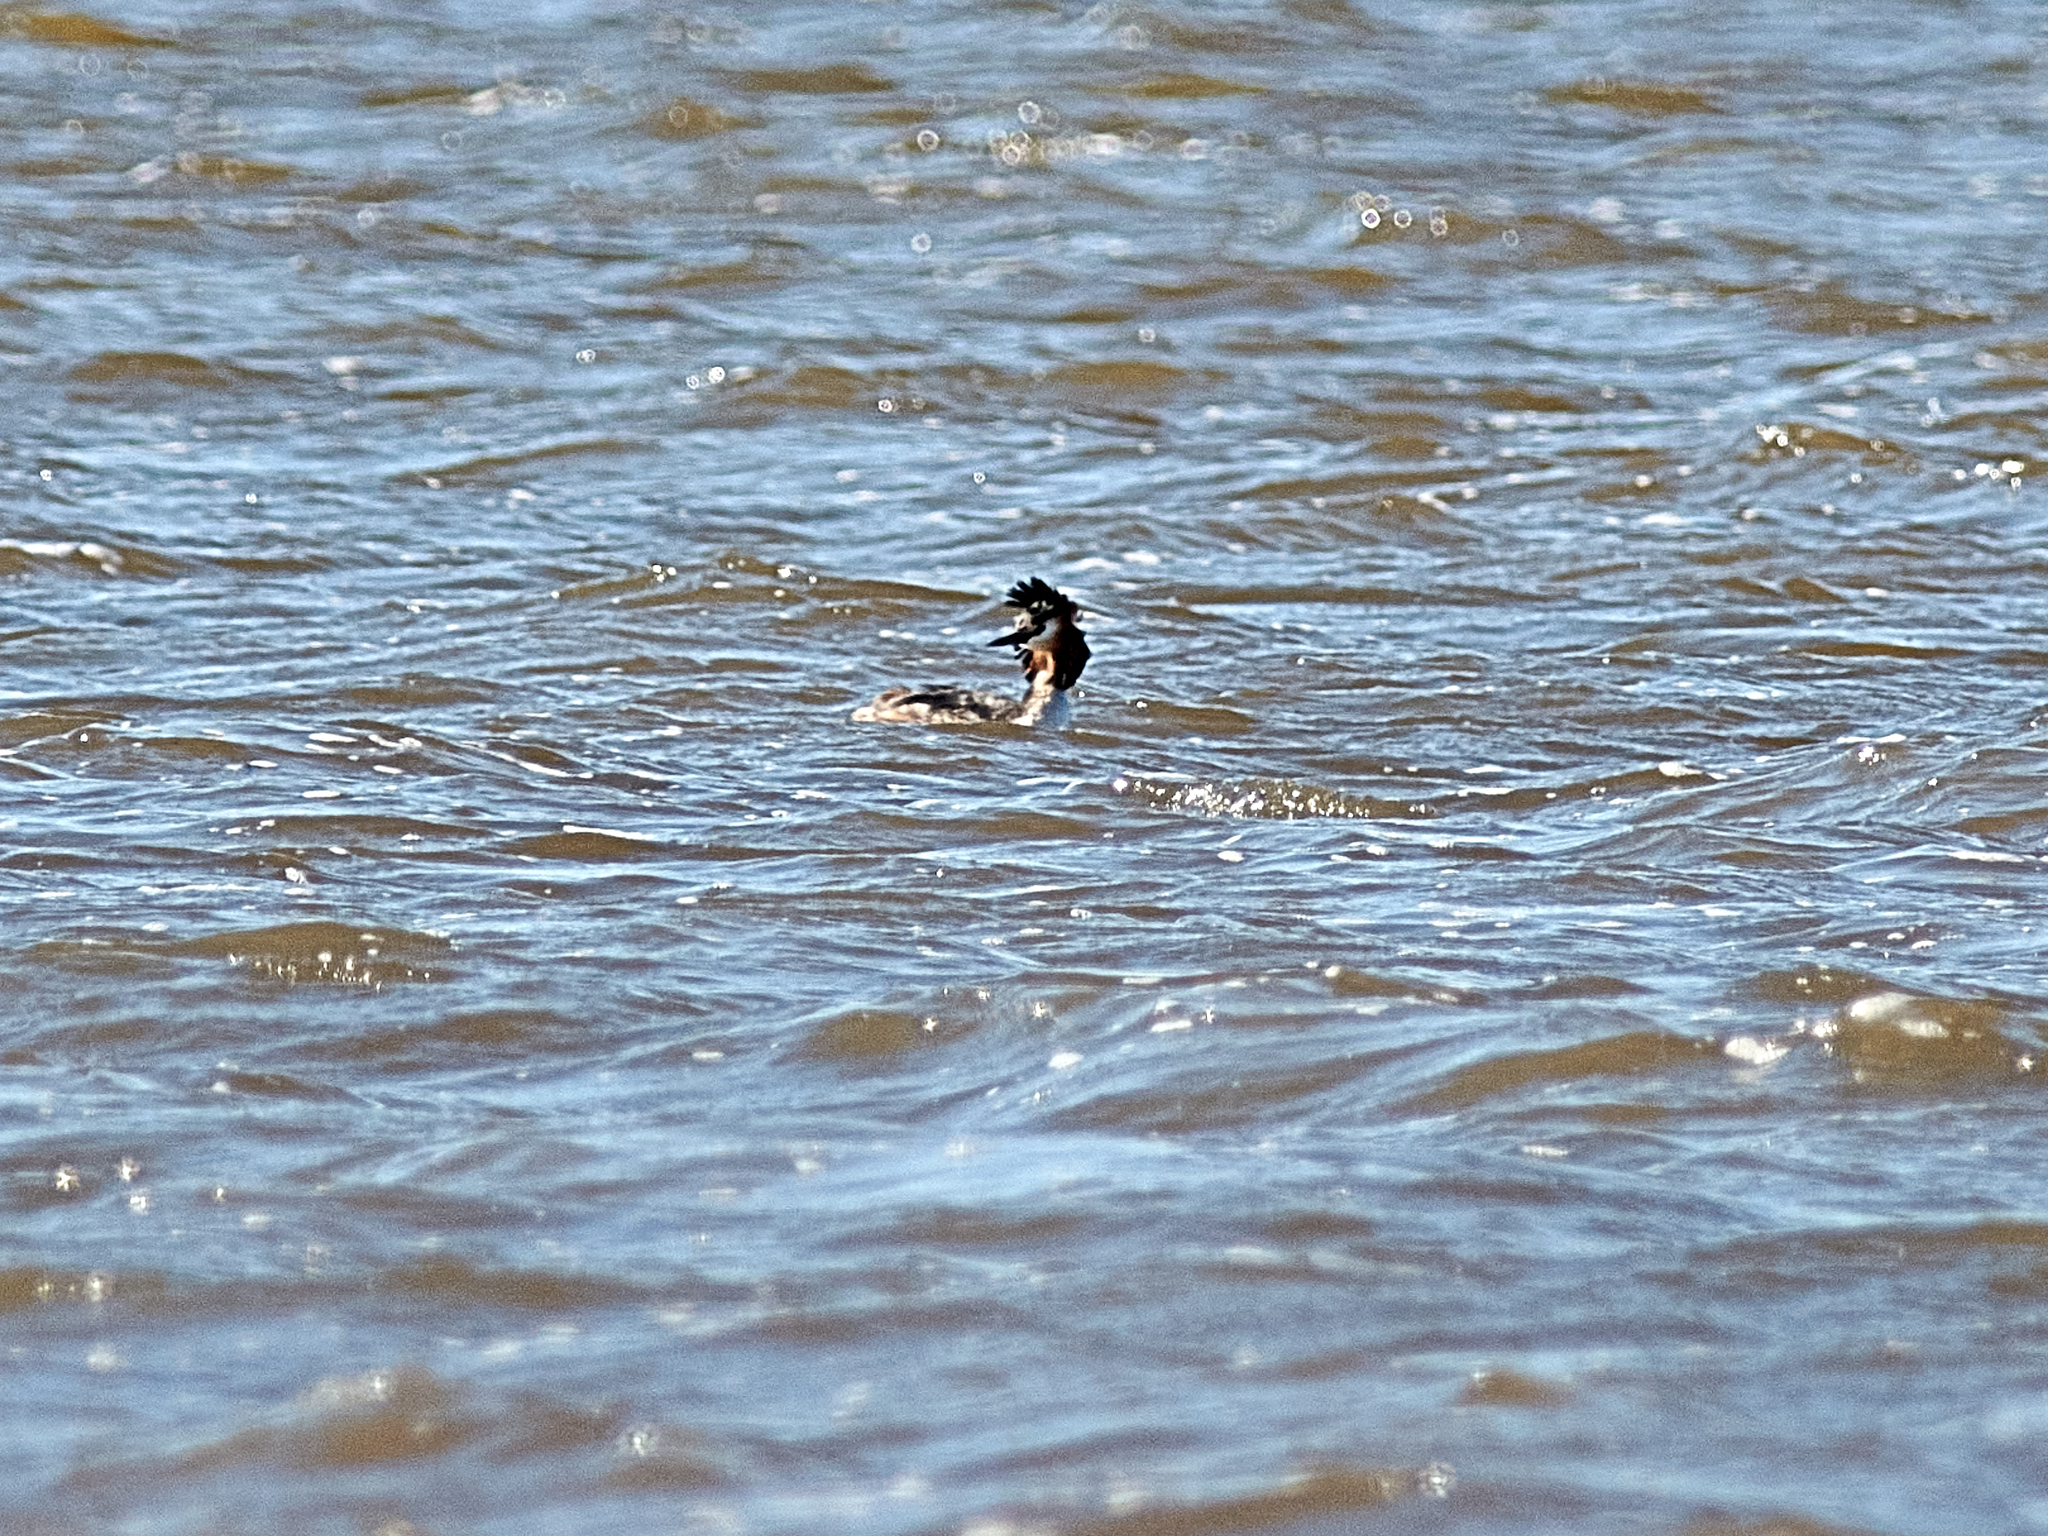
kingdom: Animalia
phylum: Chordata
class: Aves
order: Podicipediformes
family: Podicipedidae
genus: Podiceps
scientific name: Podiceps cristatus
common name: Great crested grebe
